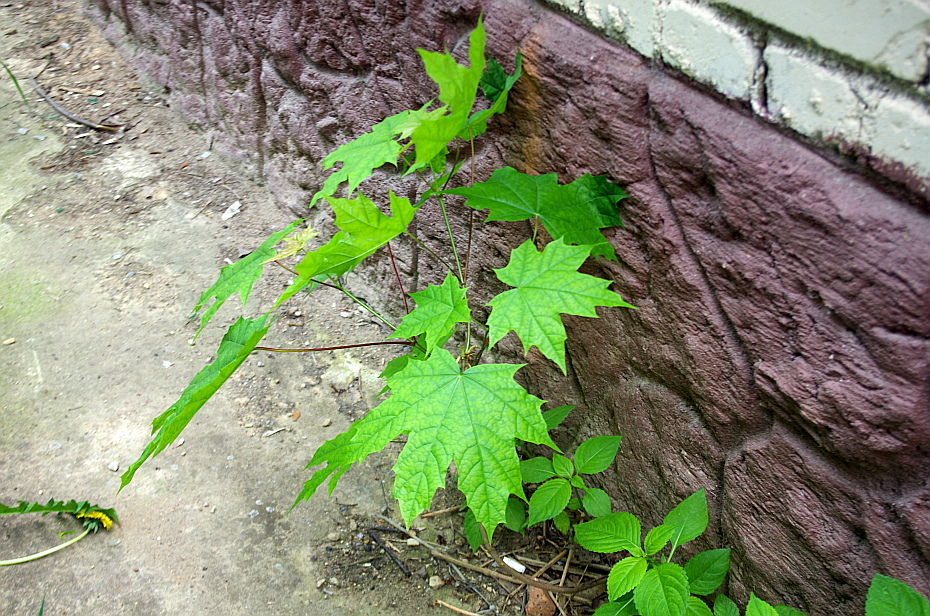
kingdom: Plantae
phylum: Tracheophyta
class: Magnoliopsida
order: Sapindales
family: Sapindaceae
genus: Acer
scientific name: Acer platanoides
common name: Norway maple
